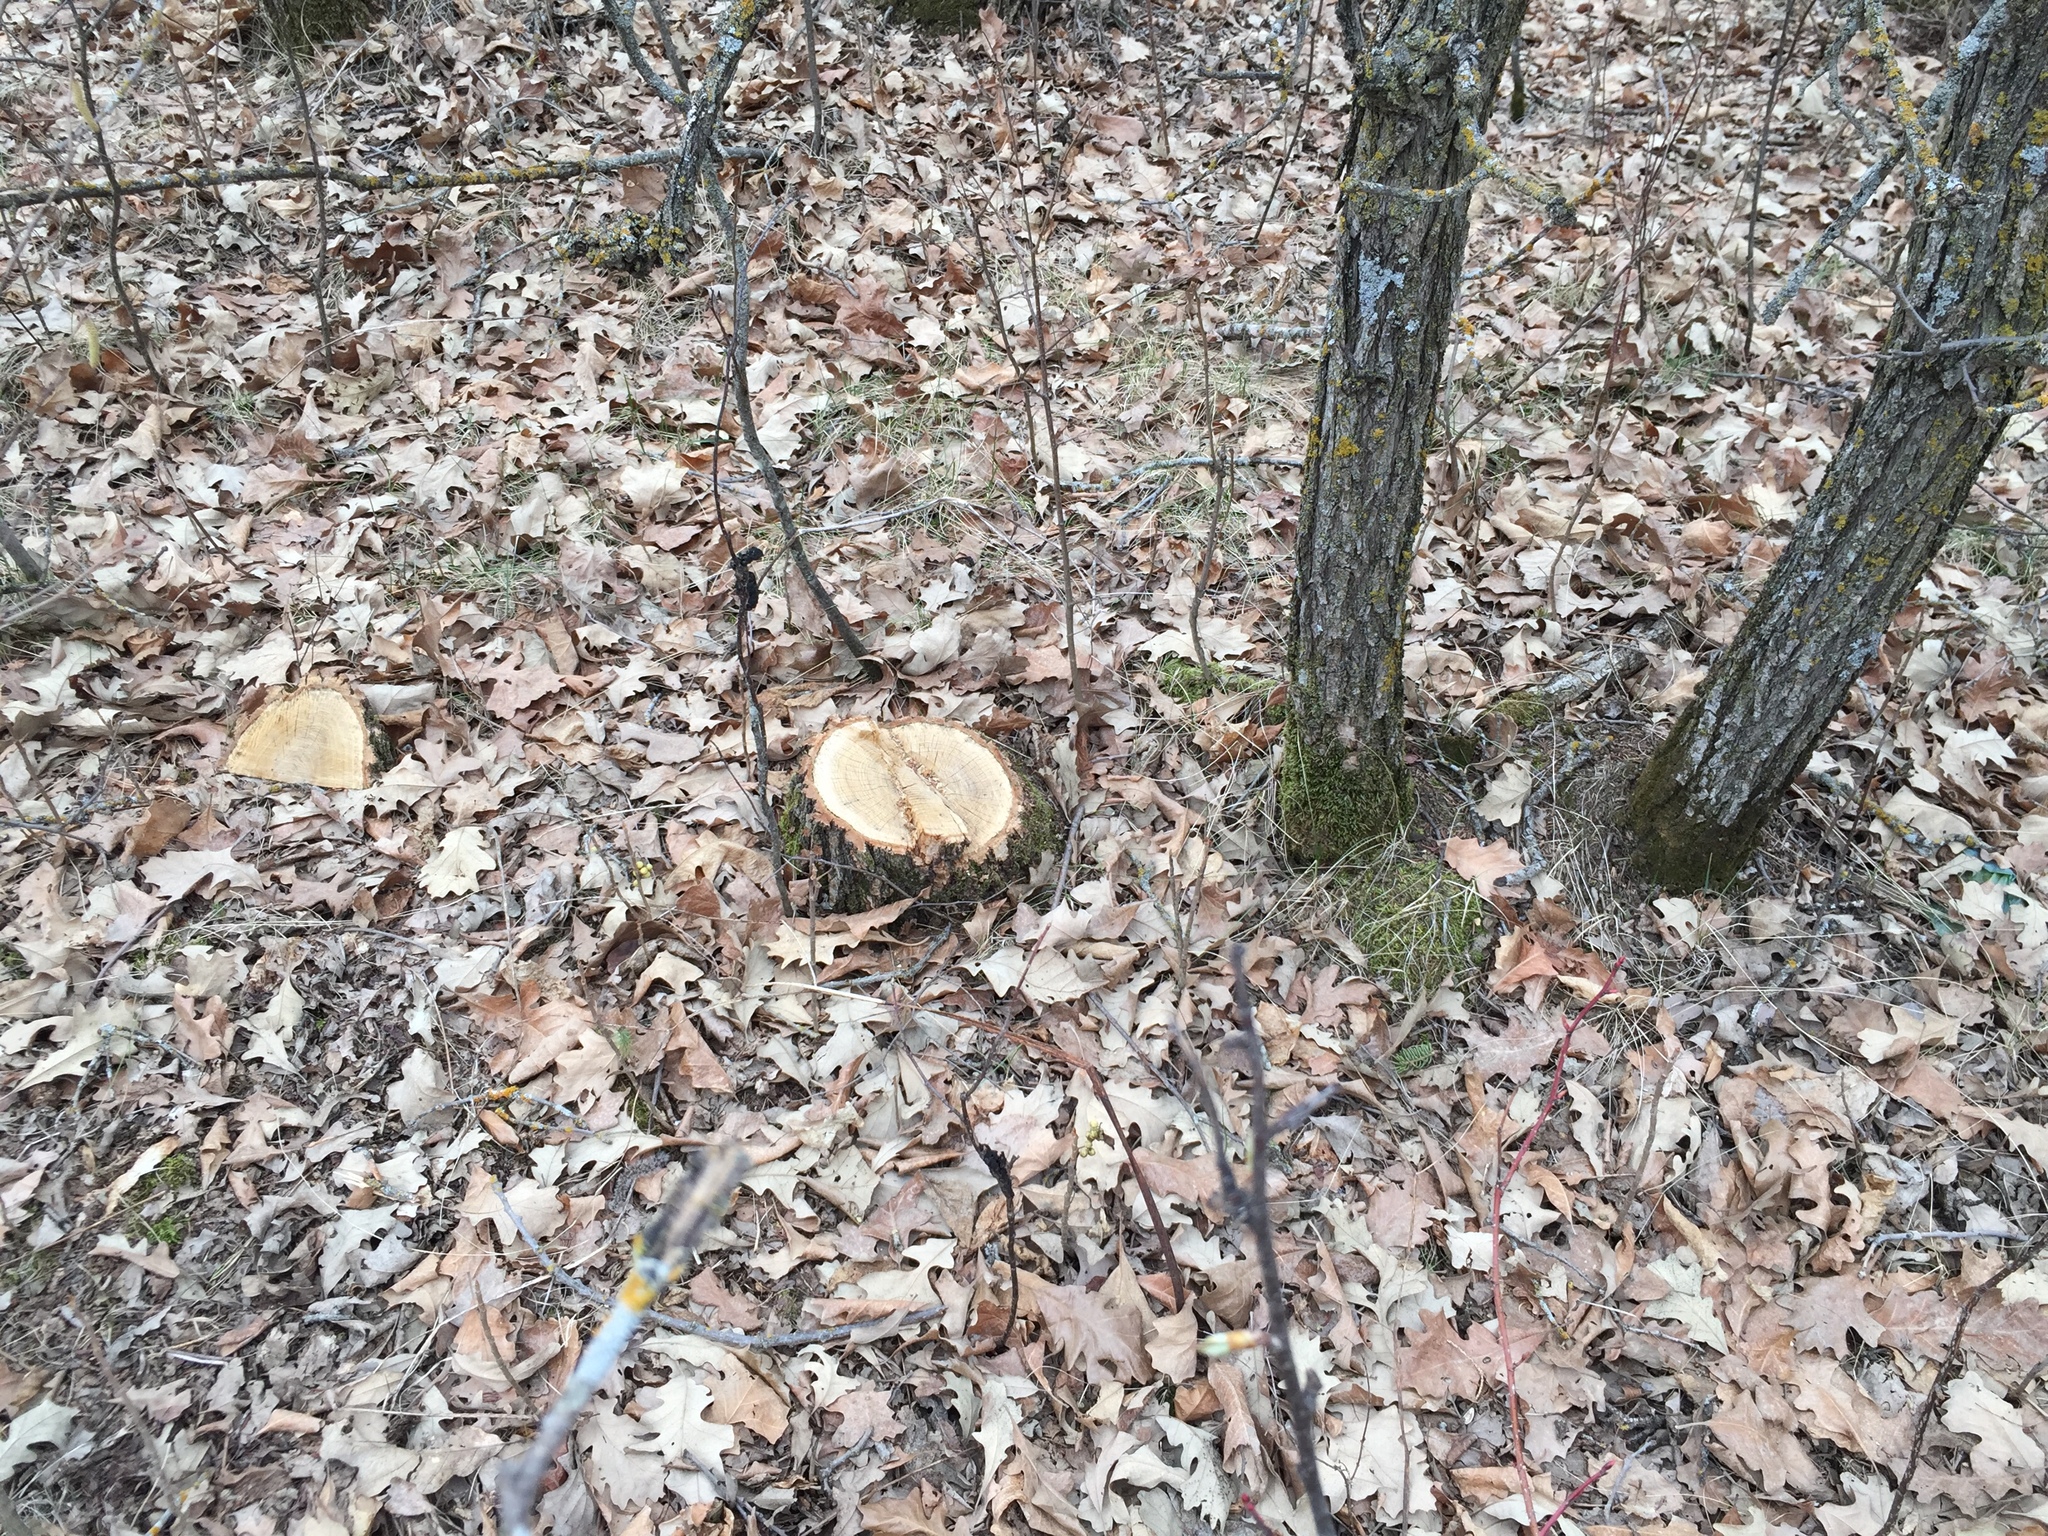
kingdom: Plantae
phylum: Tracheophyta
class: Magnoliopsida
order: Fagales
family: Fagaceae
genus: Quercus
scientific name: Quercus macrocarpa
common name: Bur oak
